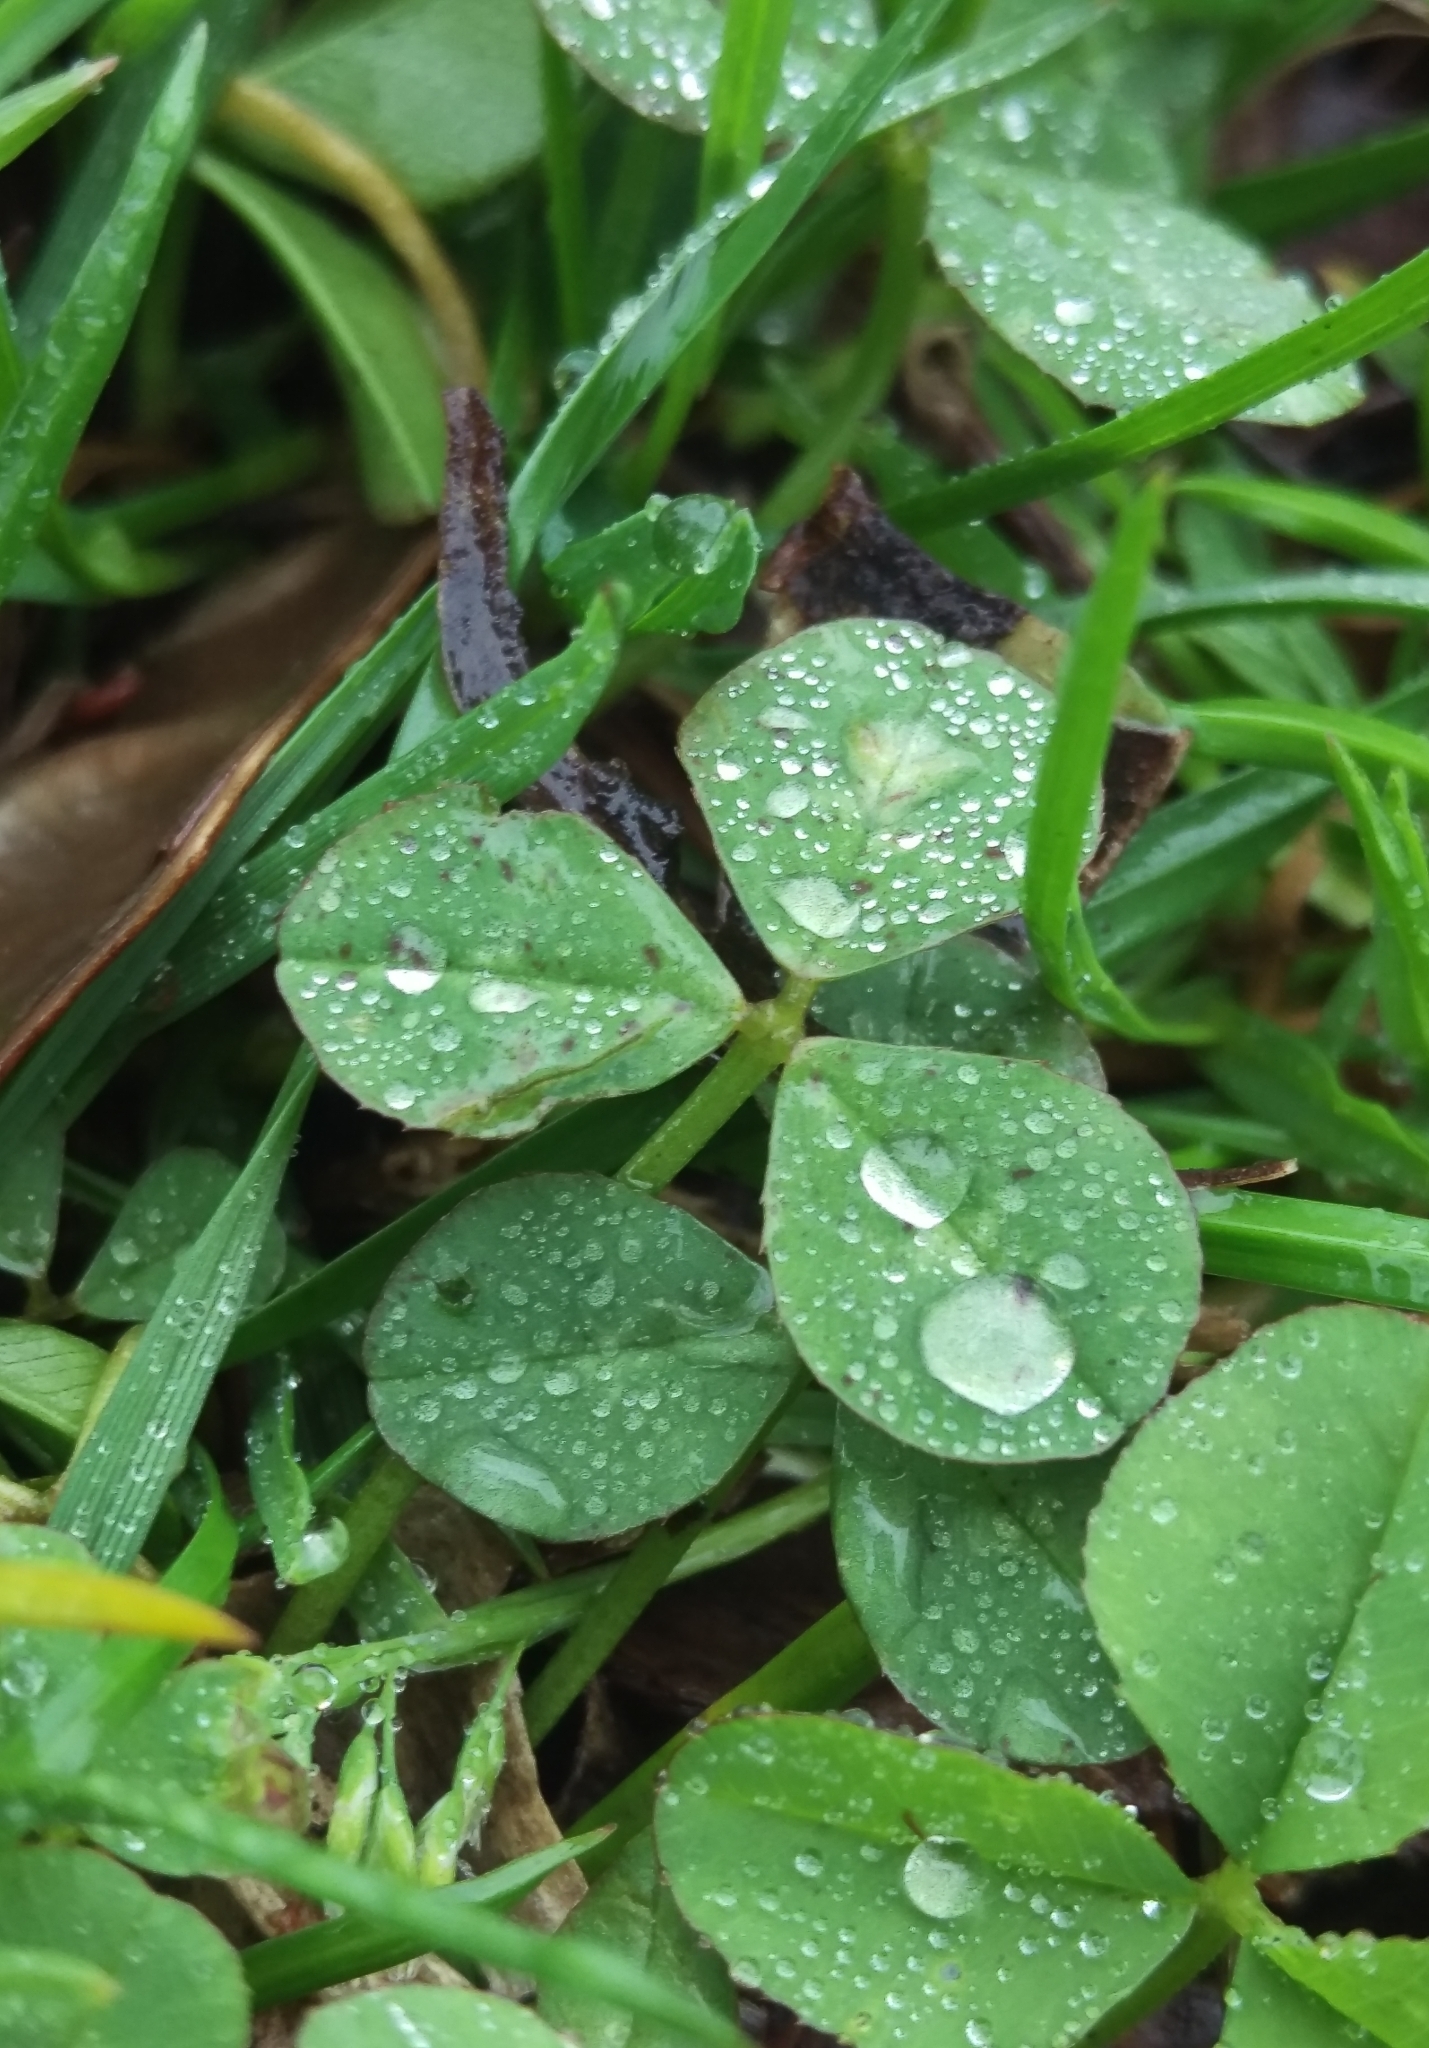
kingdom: Plantae
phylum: Tracheophyta
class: Magnoliopsida
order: Fabales
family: Fabaceae
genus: Trifolium
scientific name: Trifolium repens
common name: White clover
